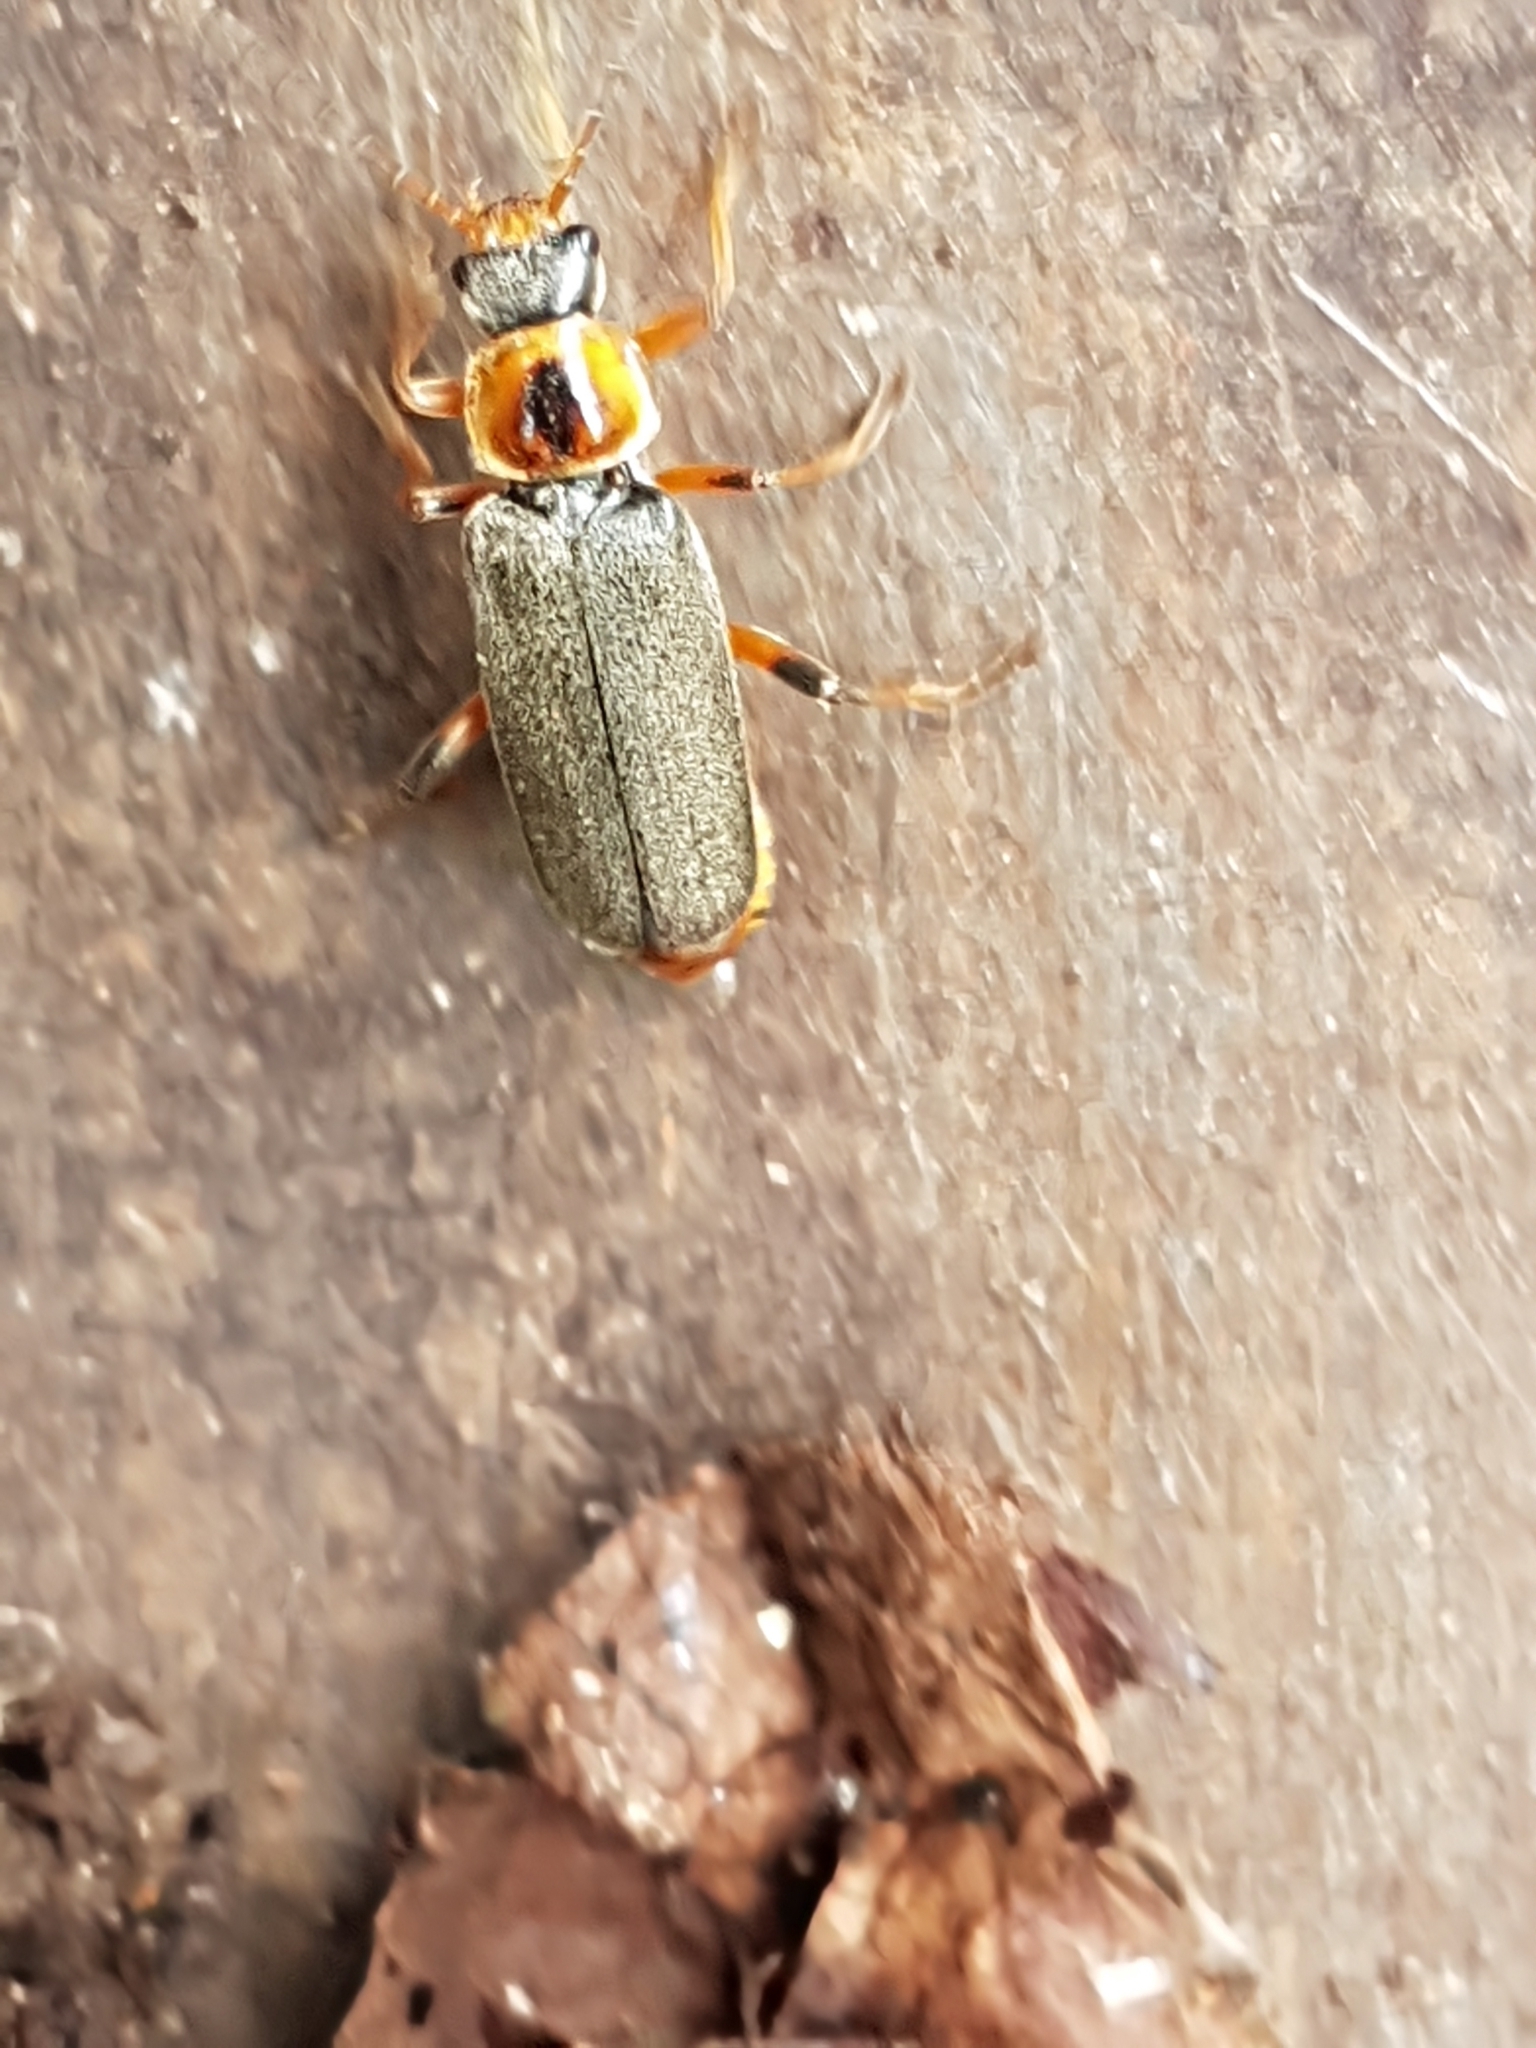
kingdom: Animalia
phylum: Arthropoda
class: Insecta
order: Coleoptera
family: Cantharidae
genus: Cantharis
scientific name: Cantharis nigricans
